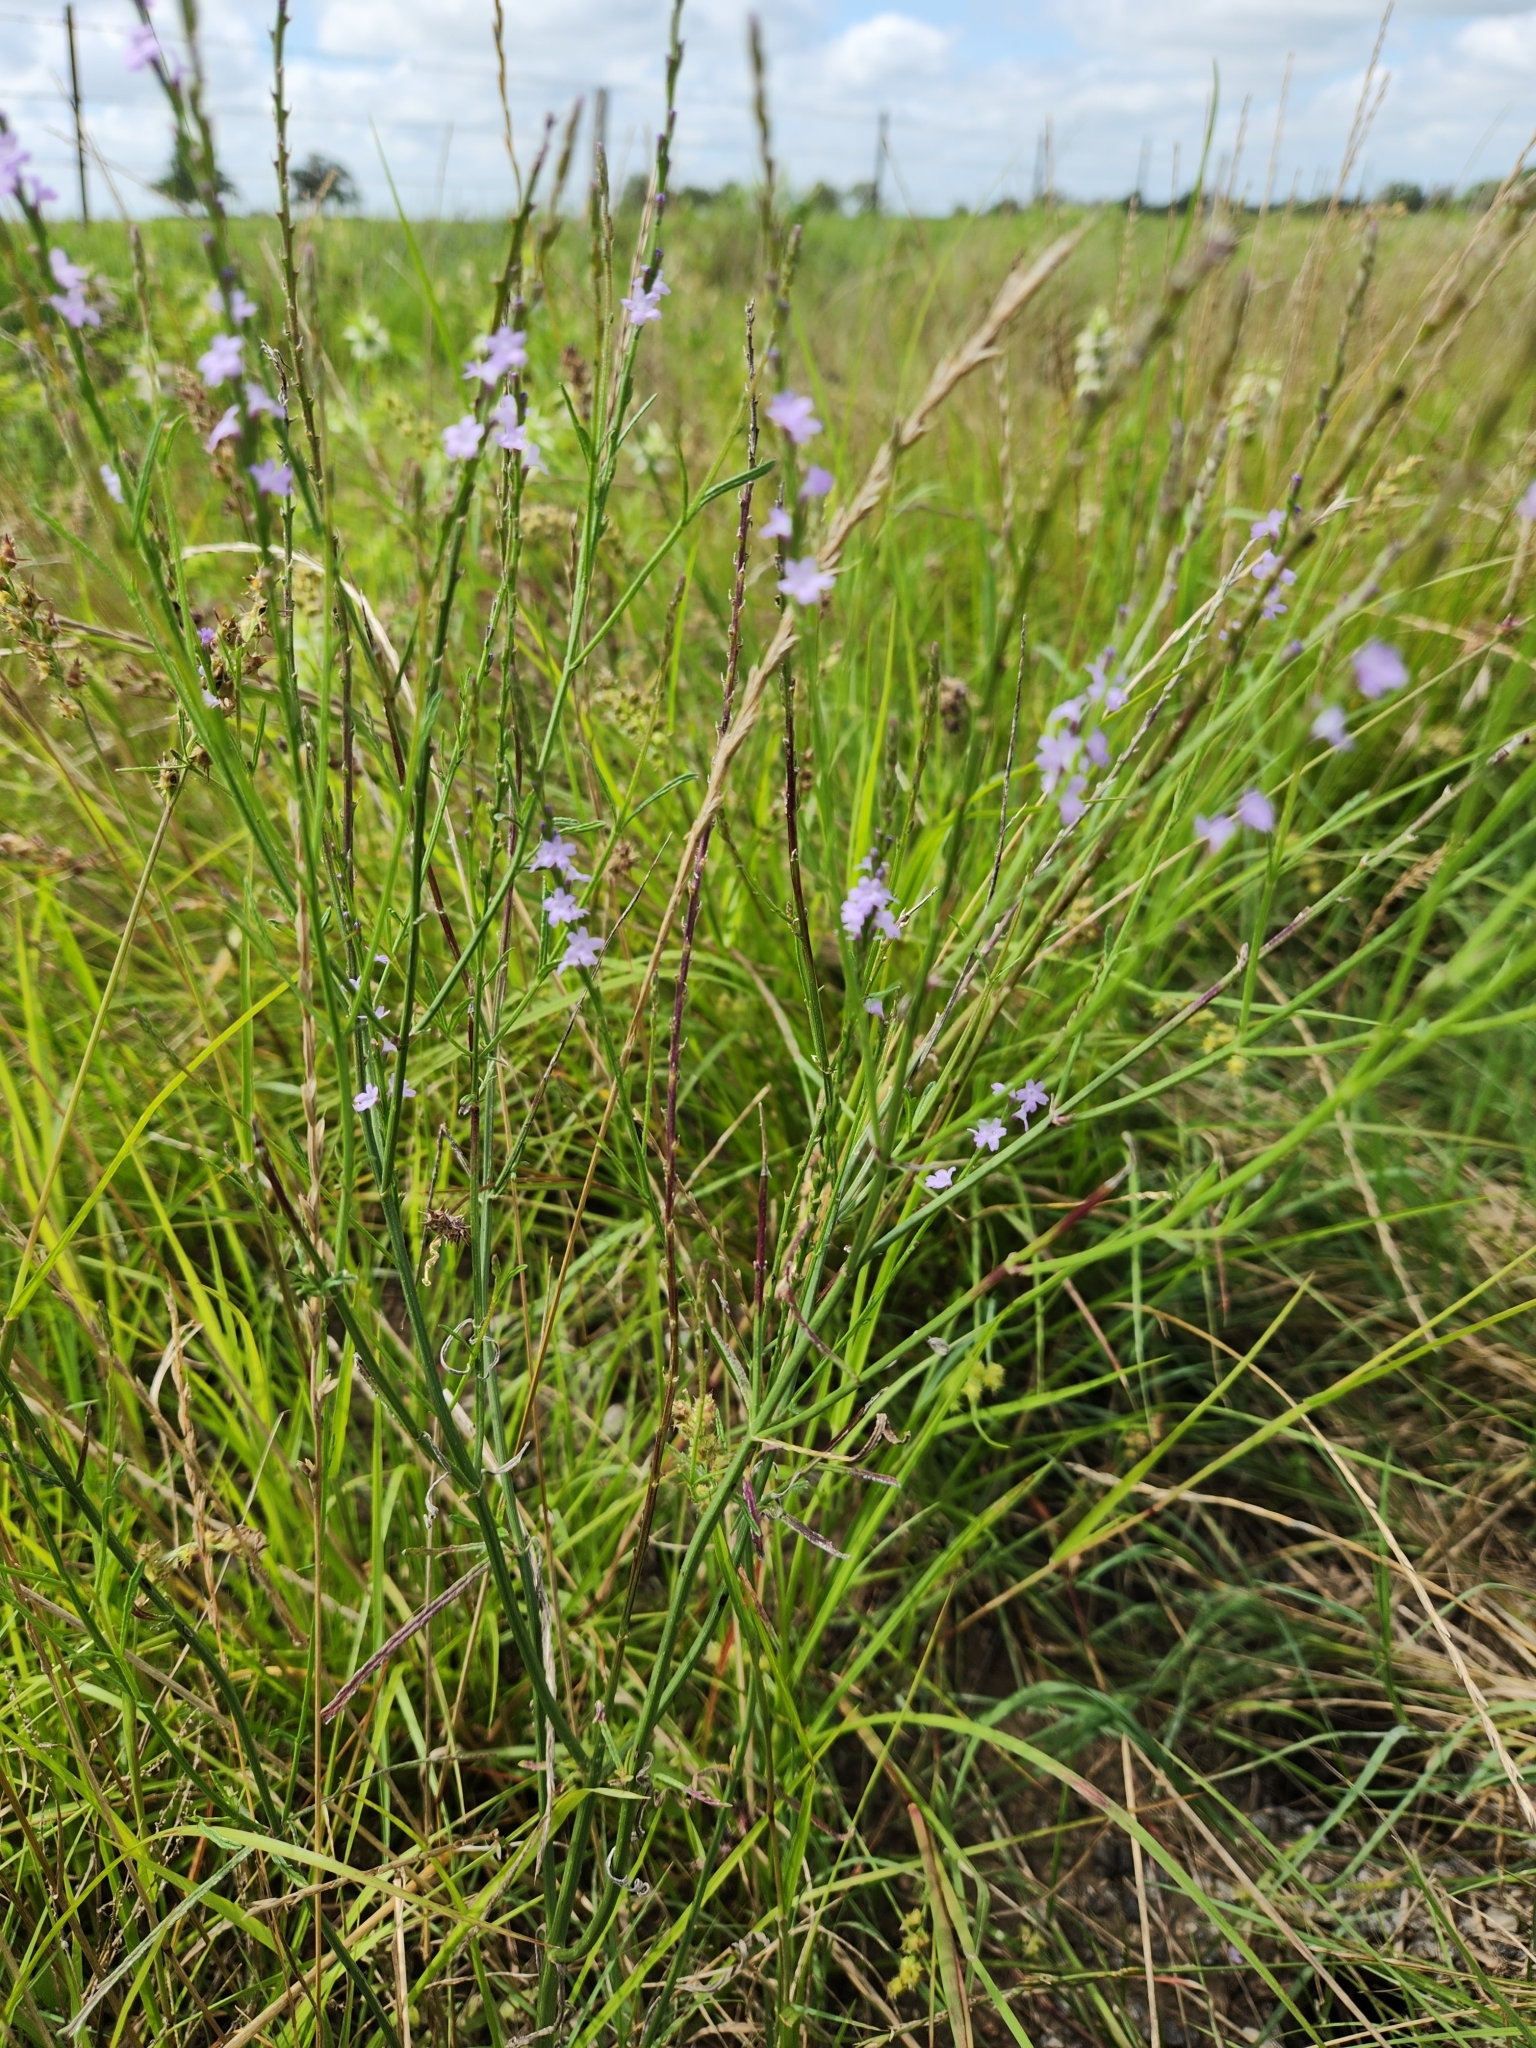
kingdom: Plantae
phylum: Tracheophyta
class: Magnoliopsida
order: Lamiales
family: Verbenaceae
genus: Verbena
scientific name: Verbena halei
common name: Texas vervain
